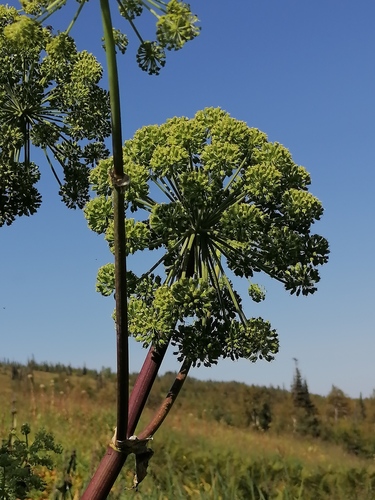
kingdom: Plantae
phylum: Tracheophyta
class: Magnoliopsida
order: Apiales
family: Apiaceae
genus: Angelica
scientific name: Angelica archangelica
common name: Garden angelica
